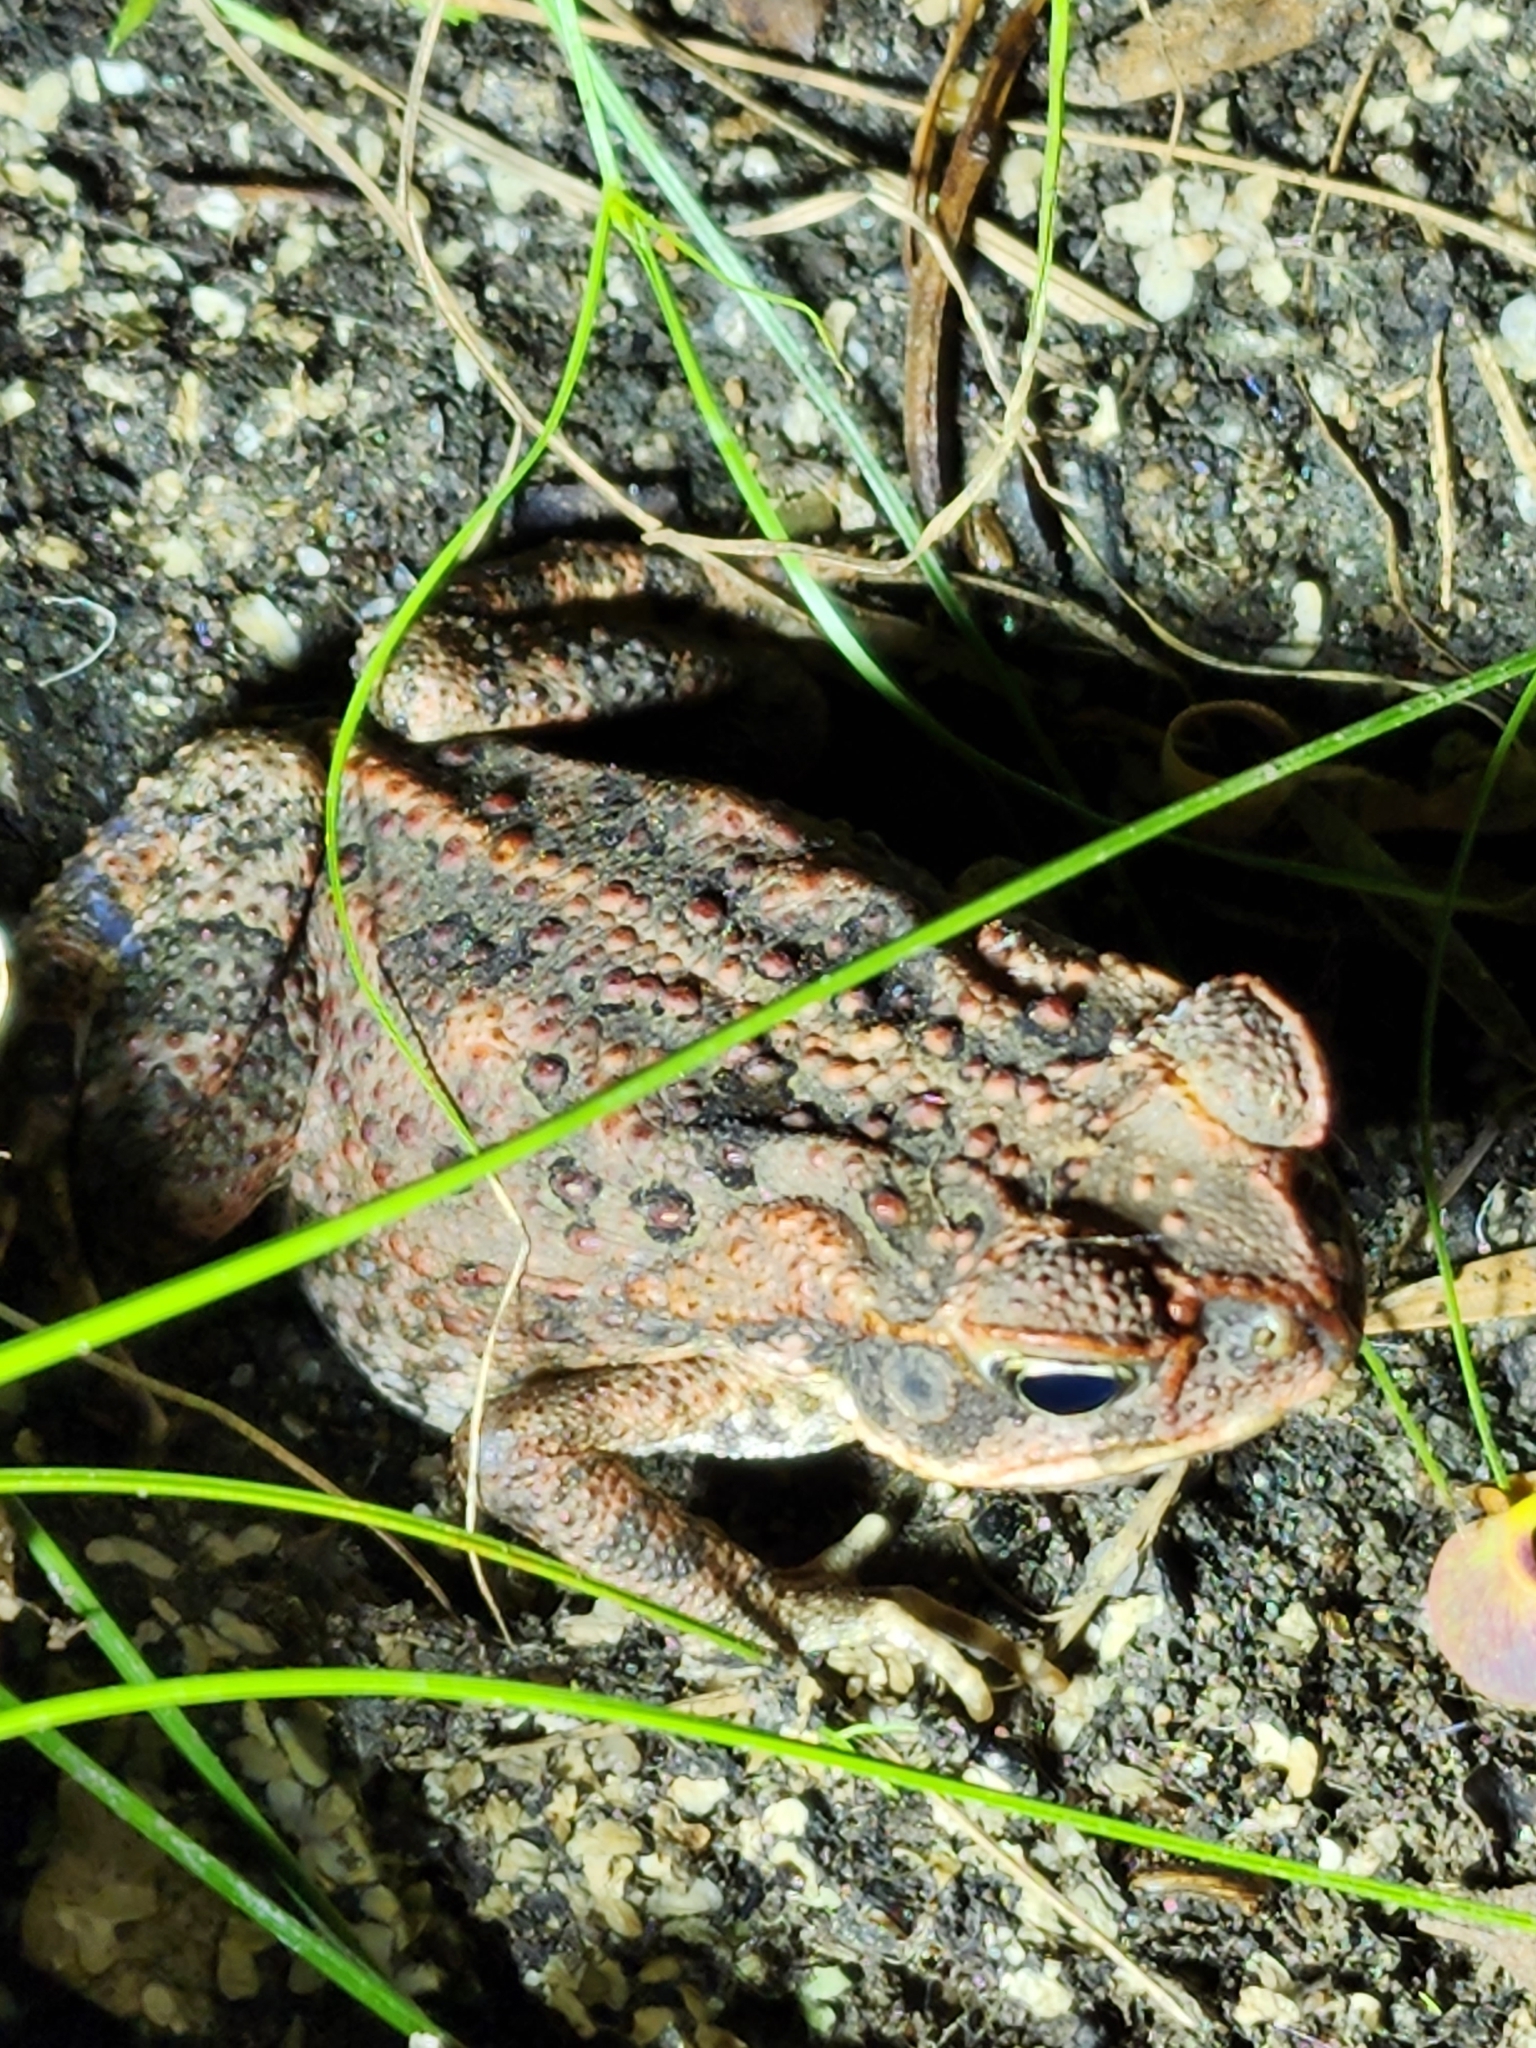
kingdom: Animalia
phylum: Chordata
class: Amphibia
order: Anura
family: Bufonidae
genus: Rhinella
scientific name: Rhinella marina
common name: Cane toad
